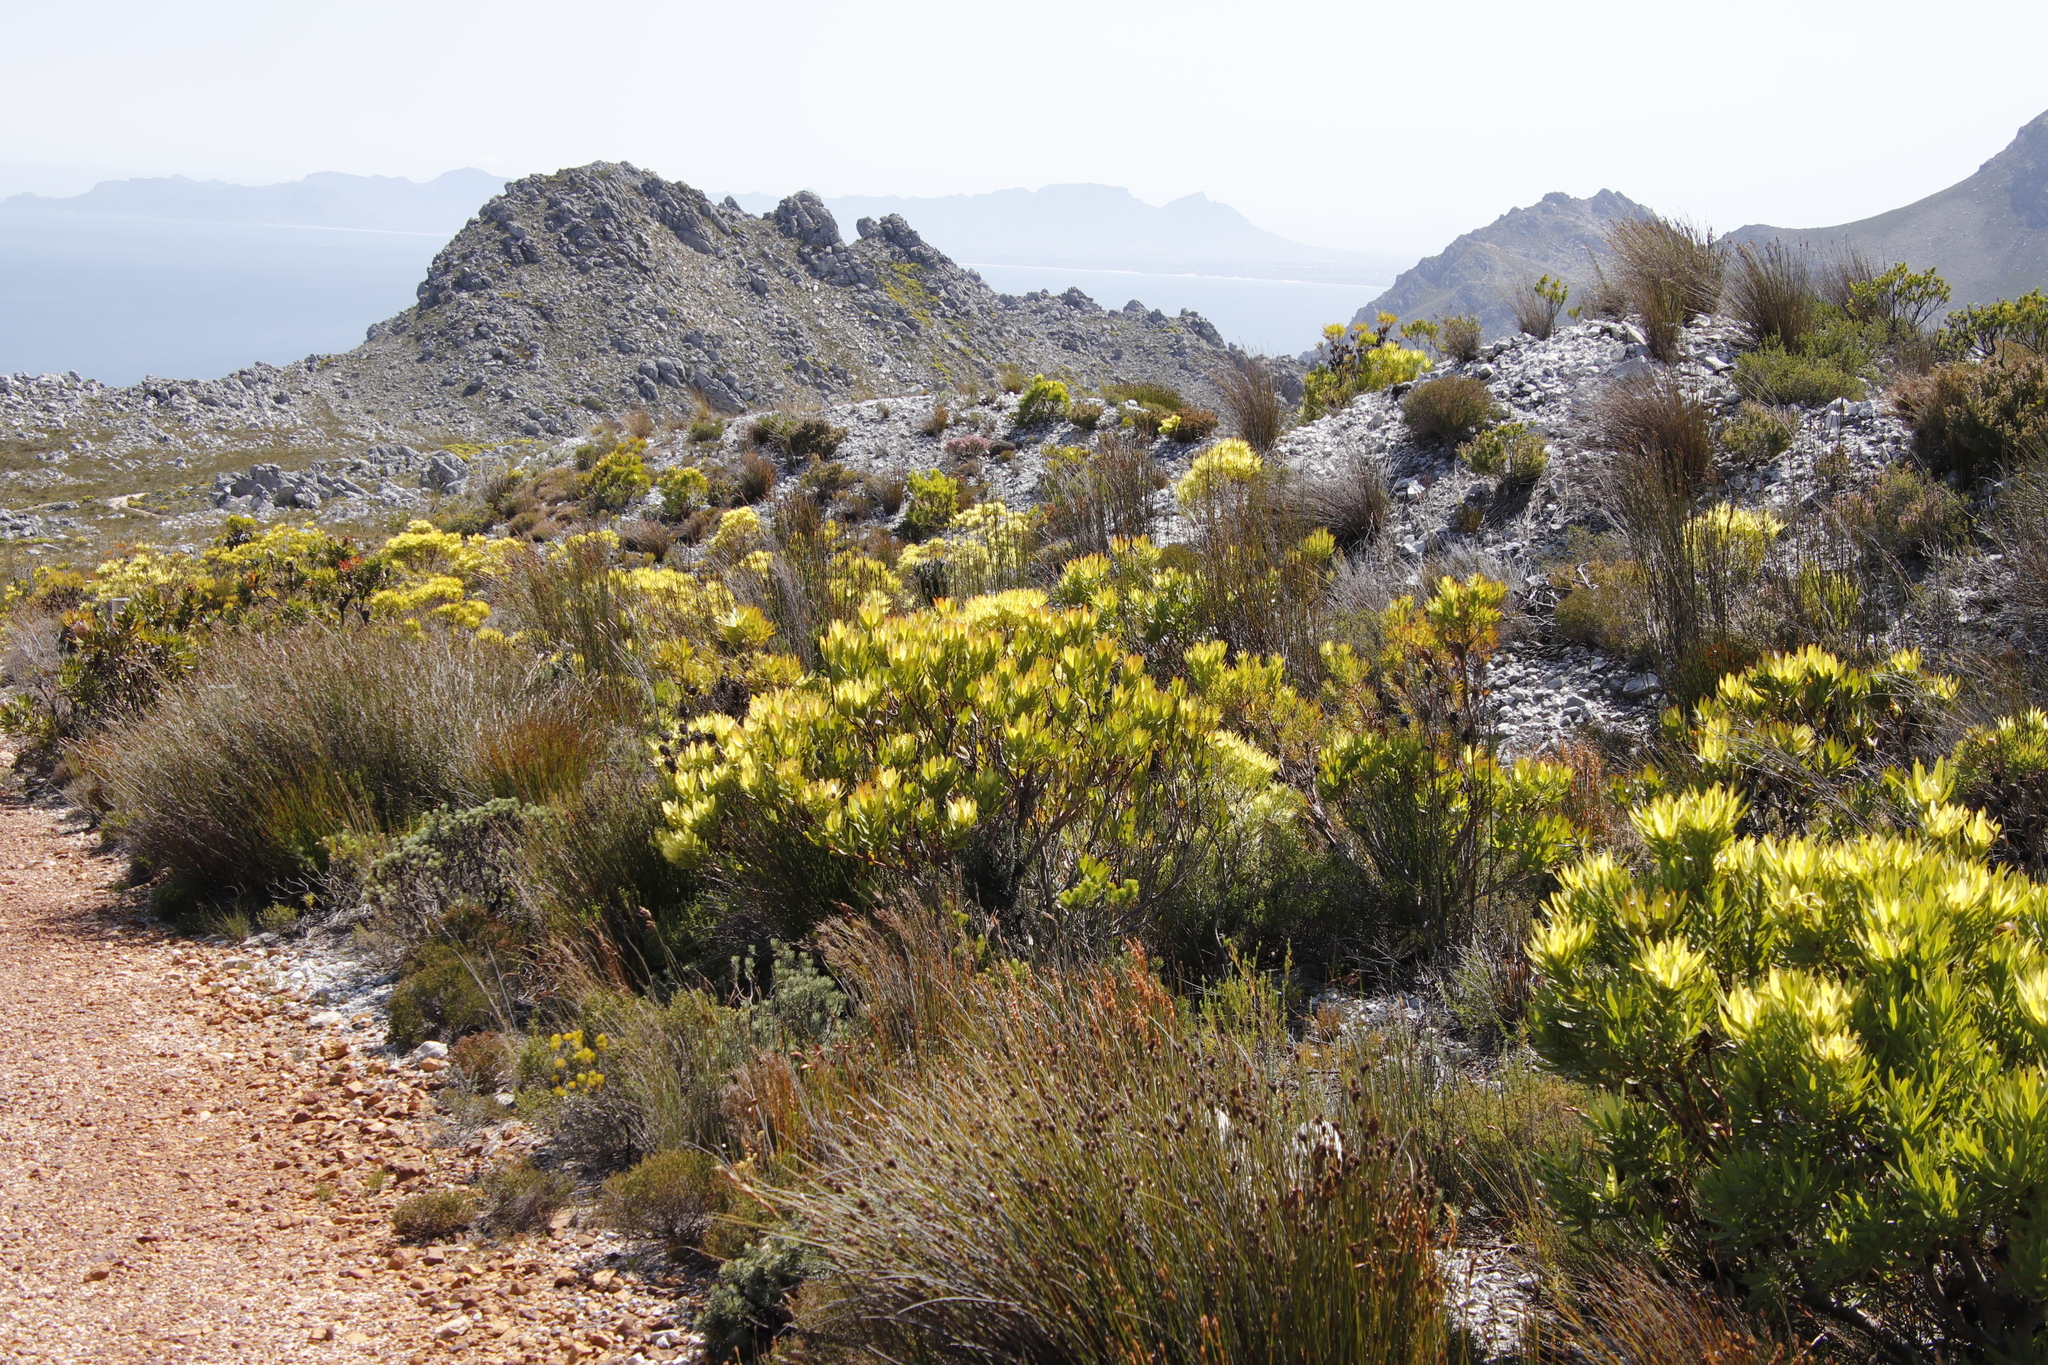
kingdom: Plantae
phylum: Tracheophyta
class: Magnoliopsida
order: Proteales
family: Proteaceae
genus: Leucadendron
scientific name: Leucadendron
